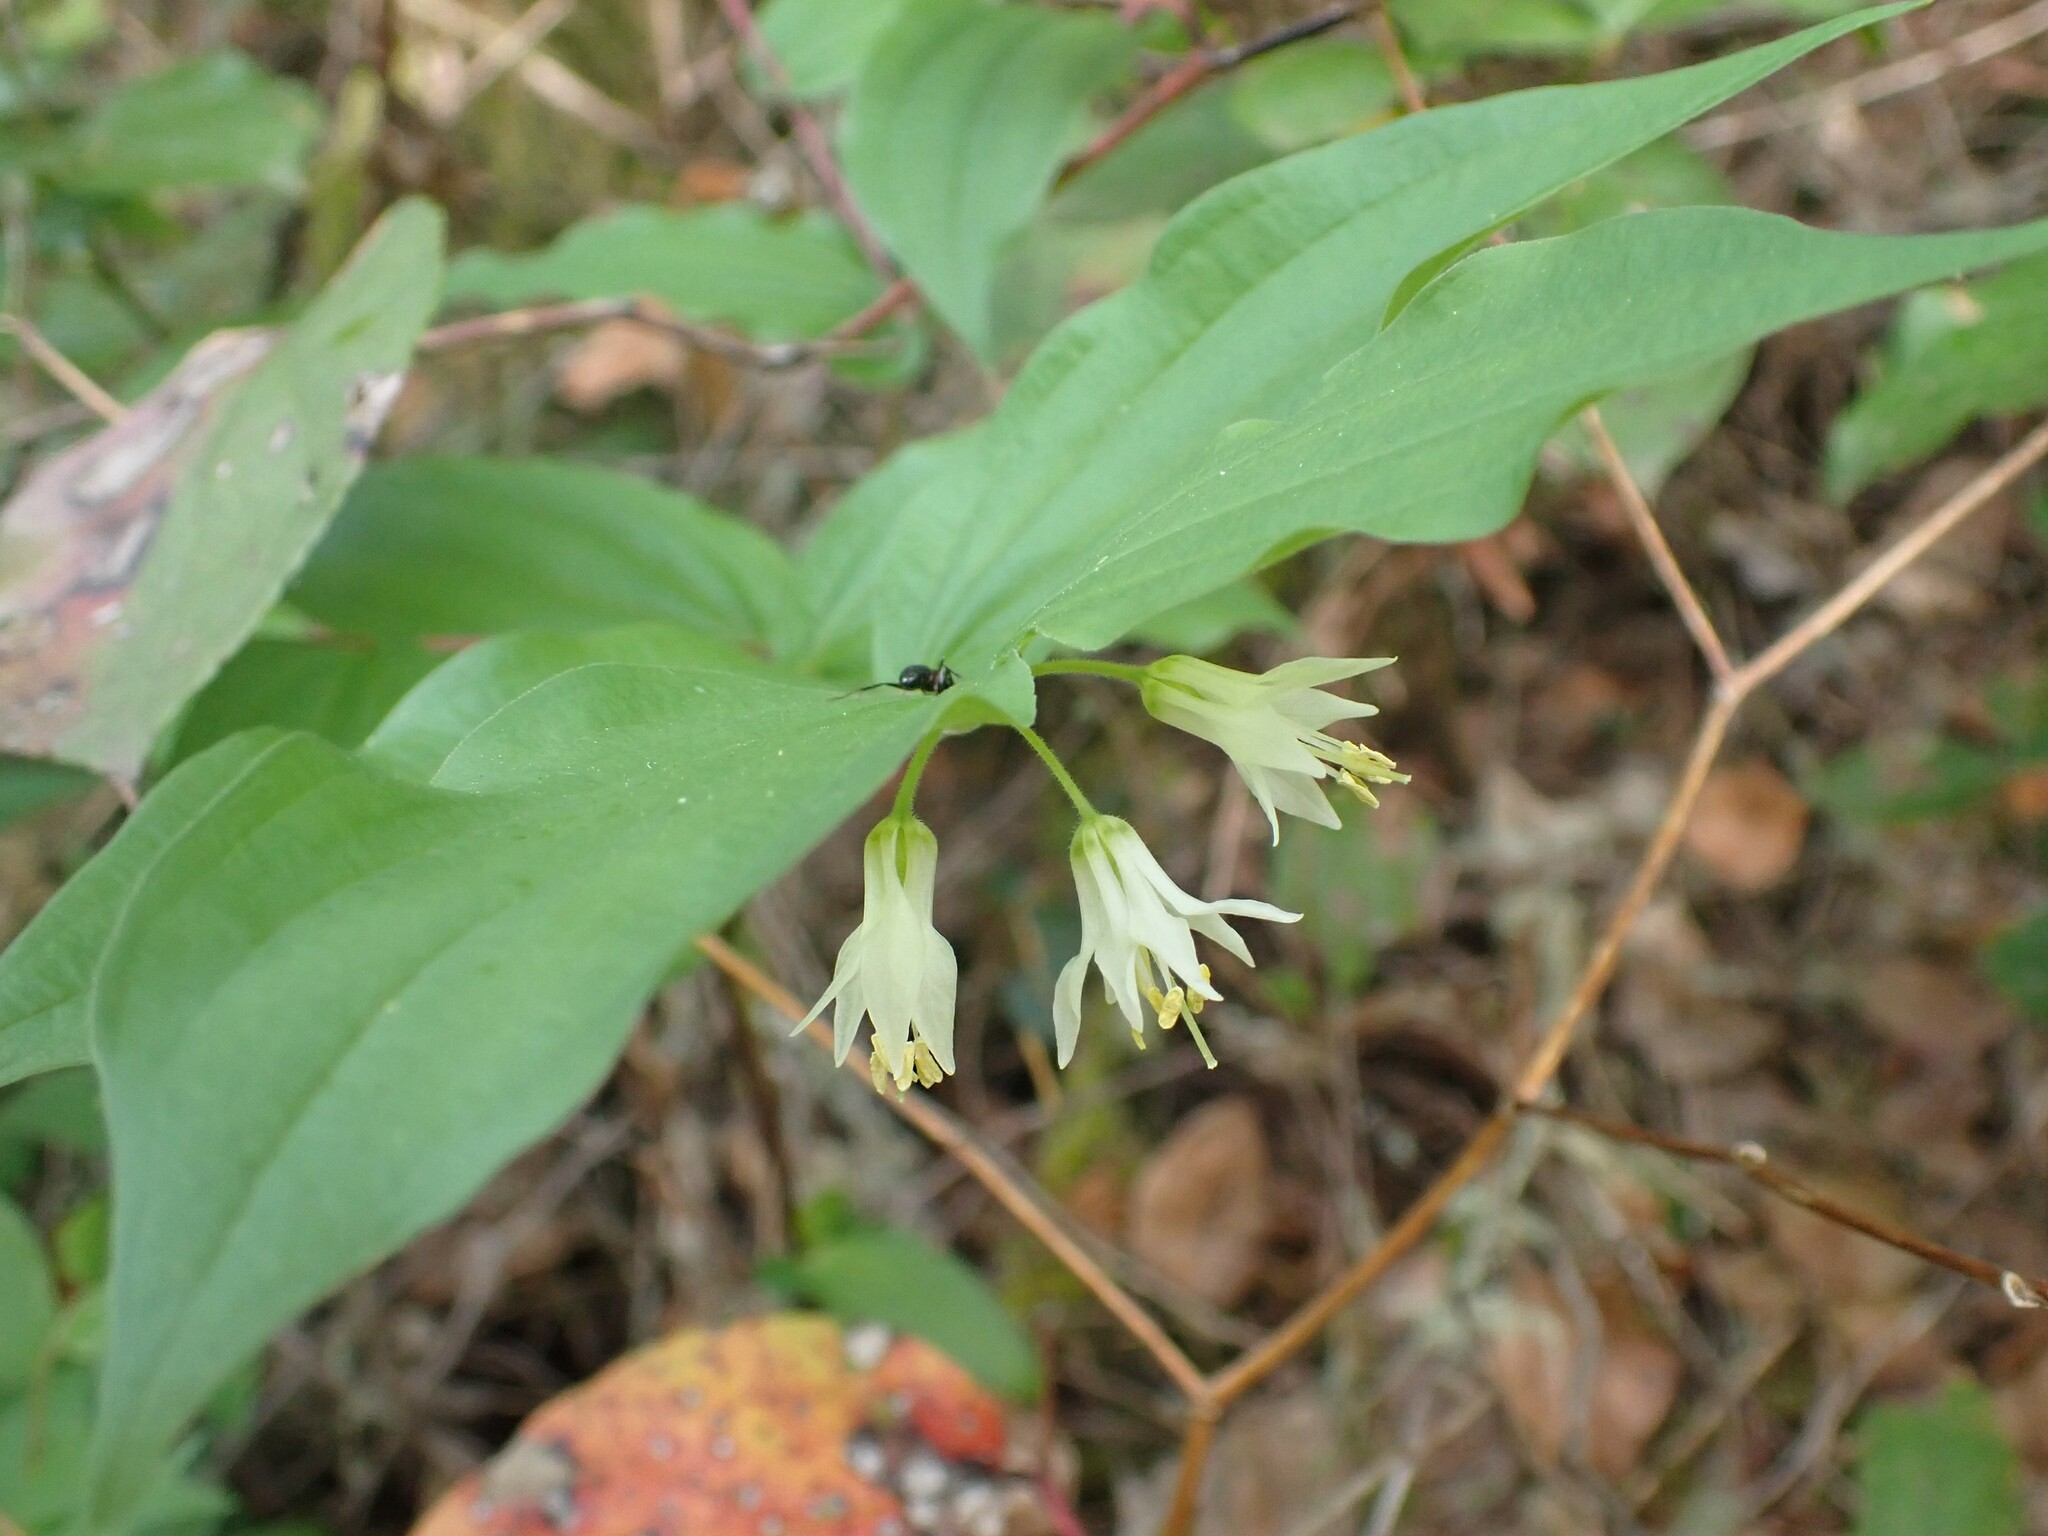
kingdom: Plantae
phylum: Tracheophyta
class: Liliopsida
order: Liliales
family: Liliaceae
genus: Prosartes
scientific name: Prosartes hookeri
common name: Fairy-bells
